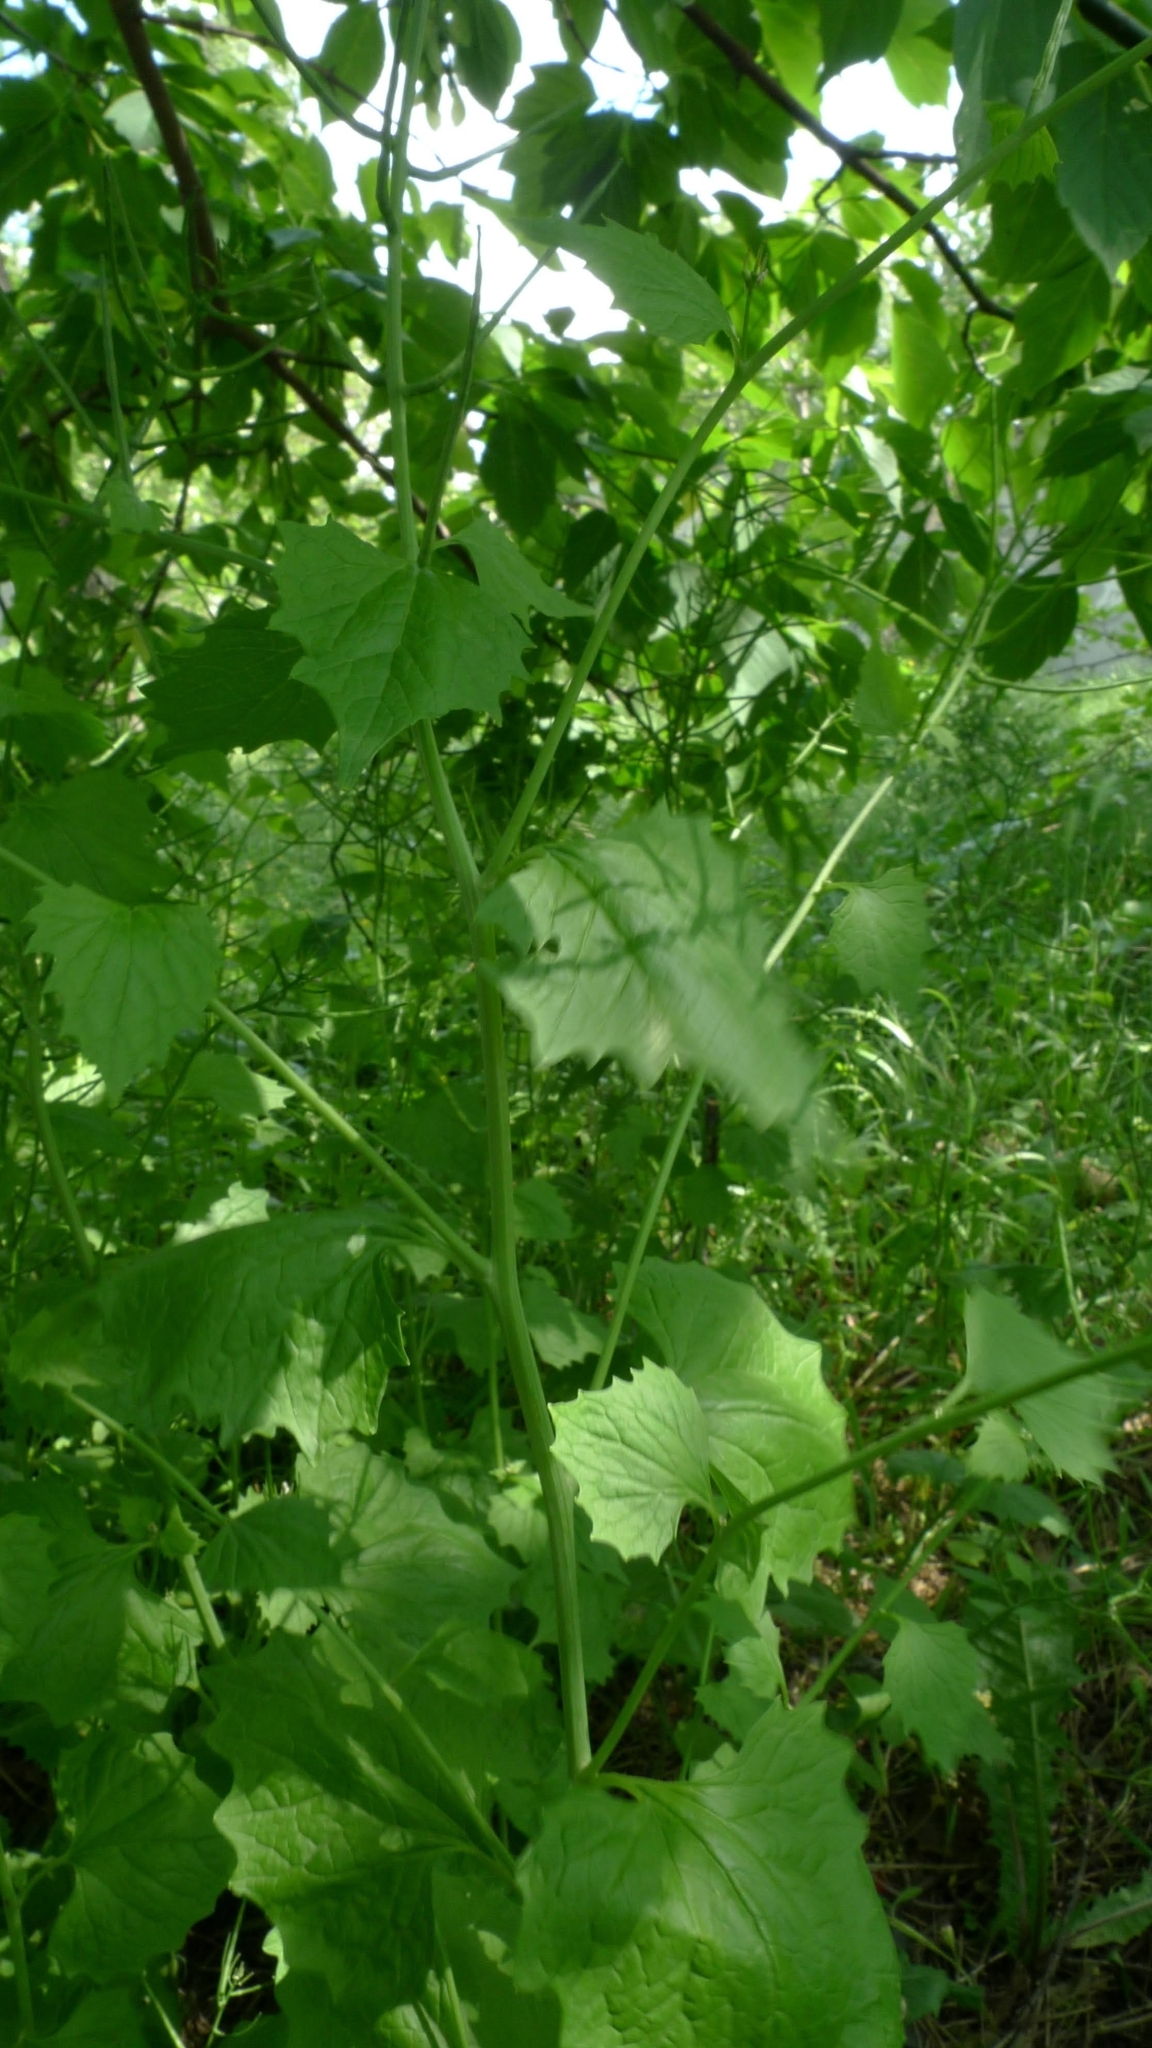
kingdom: Plantae
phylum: Tracheophyta
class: Magnoliopsida
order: Brassicales
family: Brassicaceae
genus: Alliaria
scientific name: Alliaria petiolata
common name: Garlic mustard
